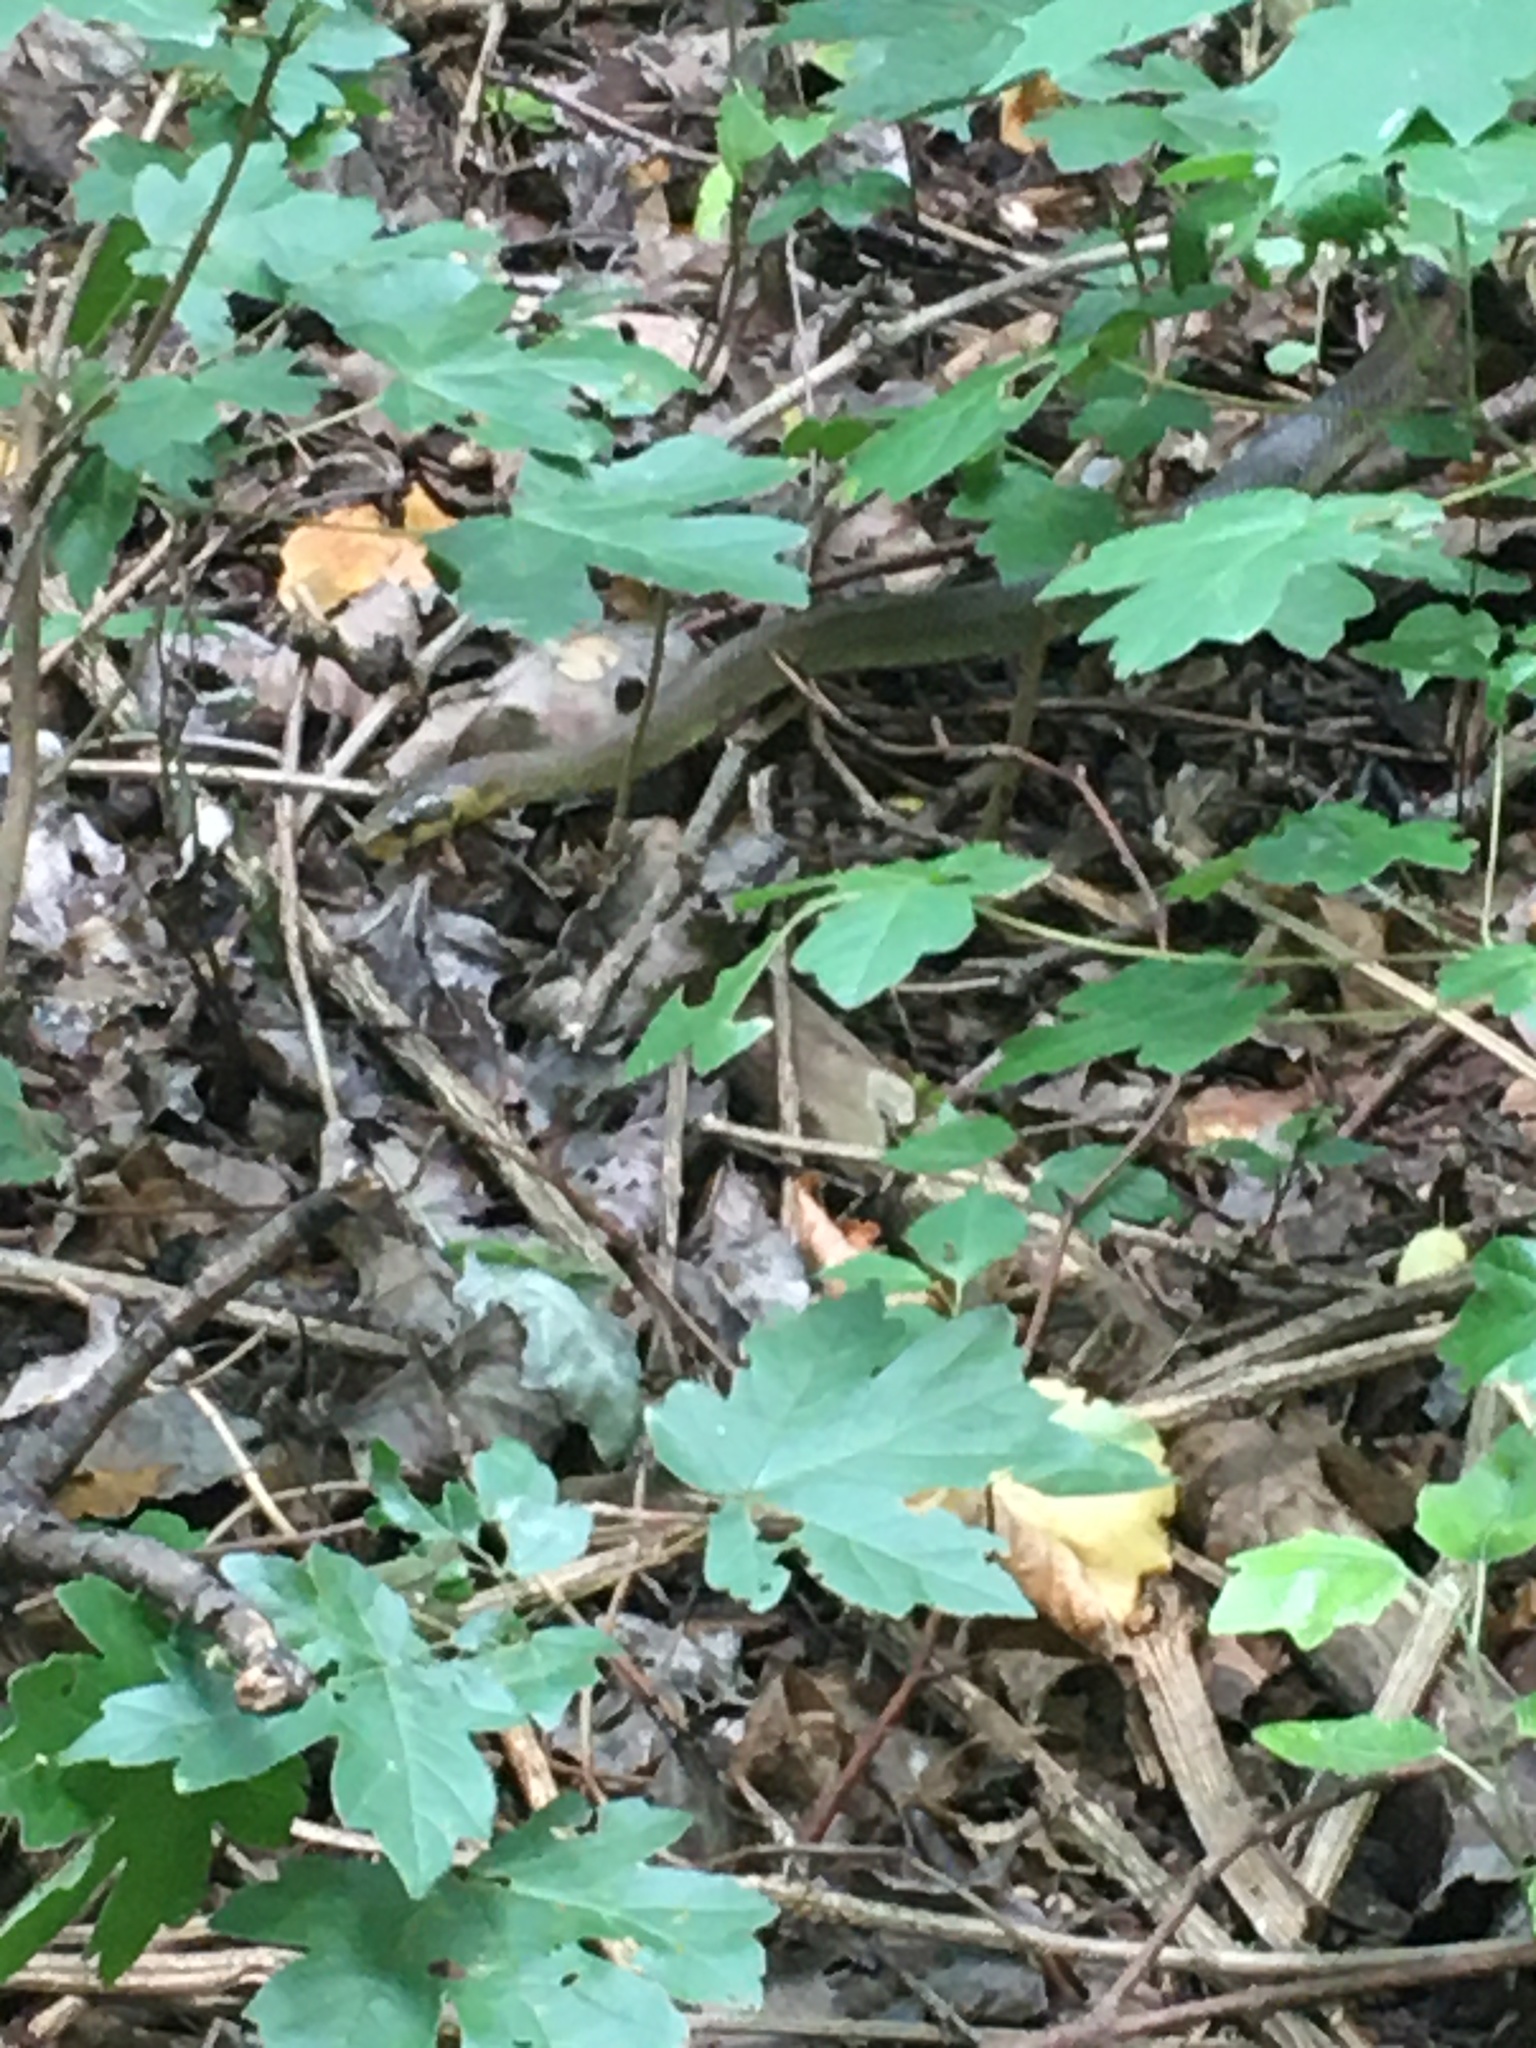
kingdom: Animalia
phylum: Chordata
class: Squamata
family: Colubridae
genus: Zamenis
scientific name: Zamenis longissimus
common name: Aesculapean snake
